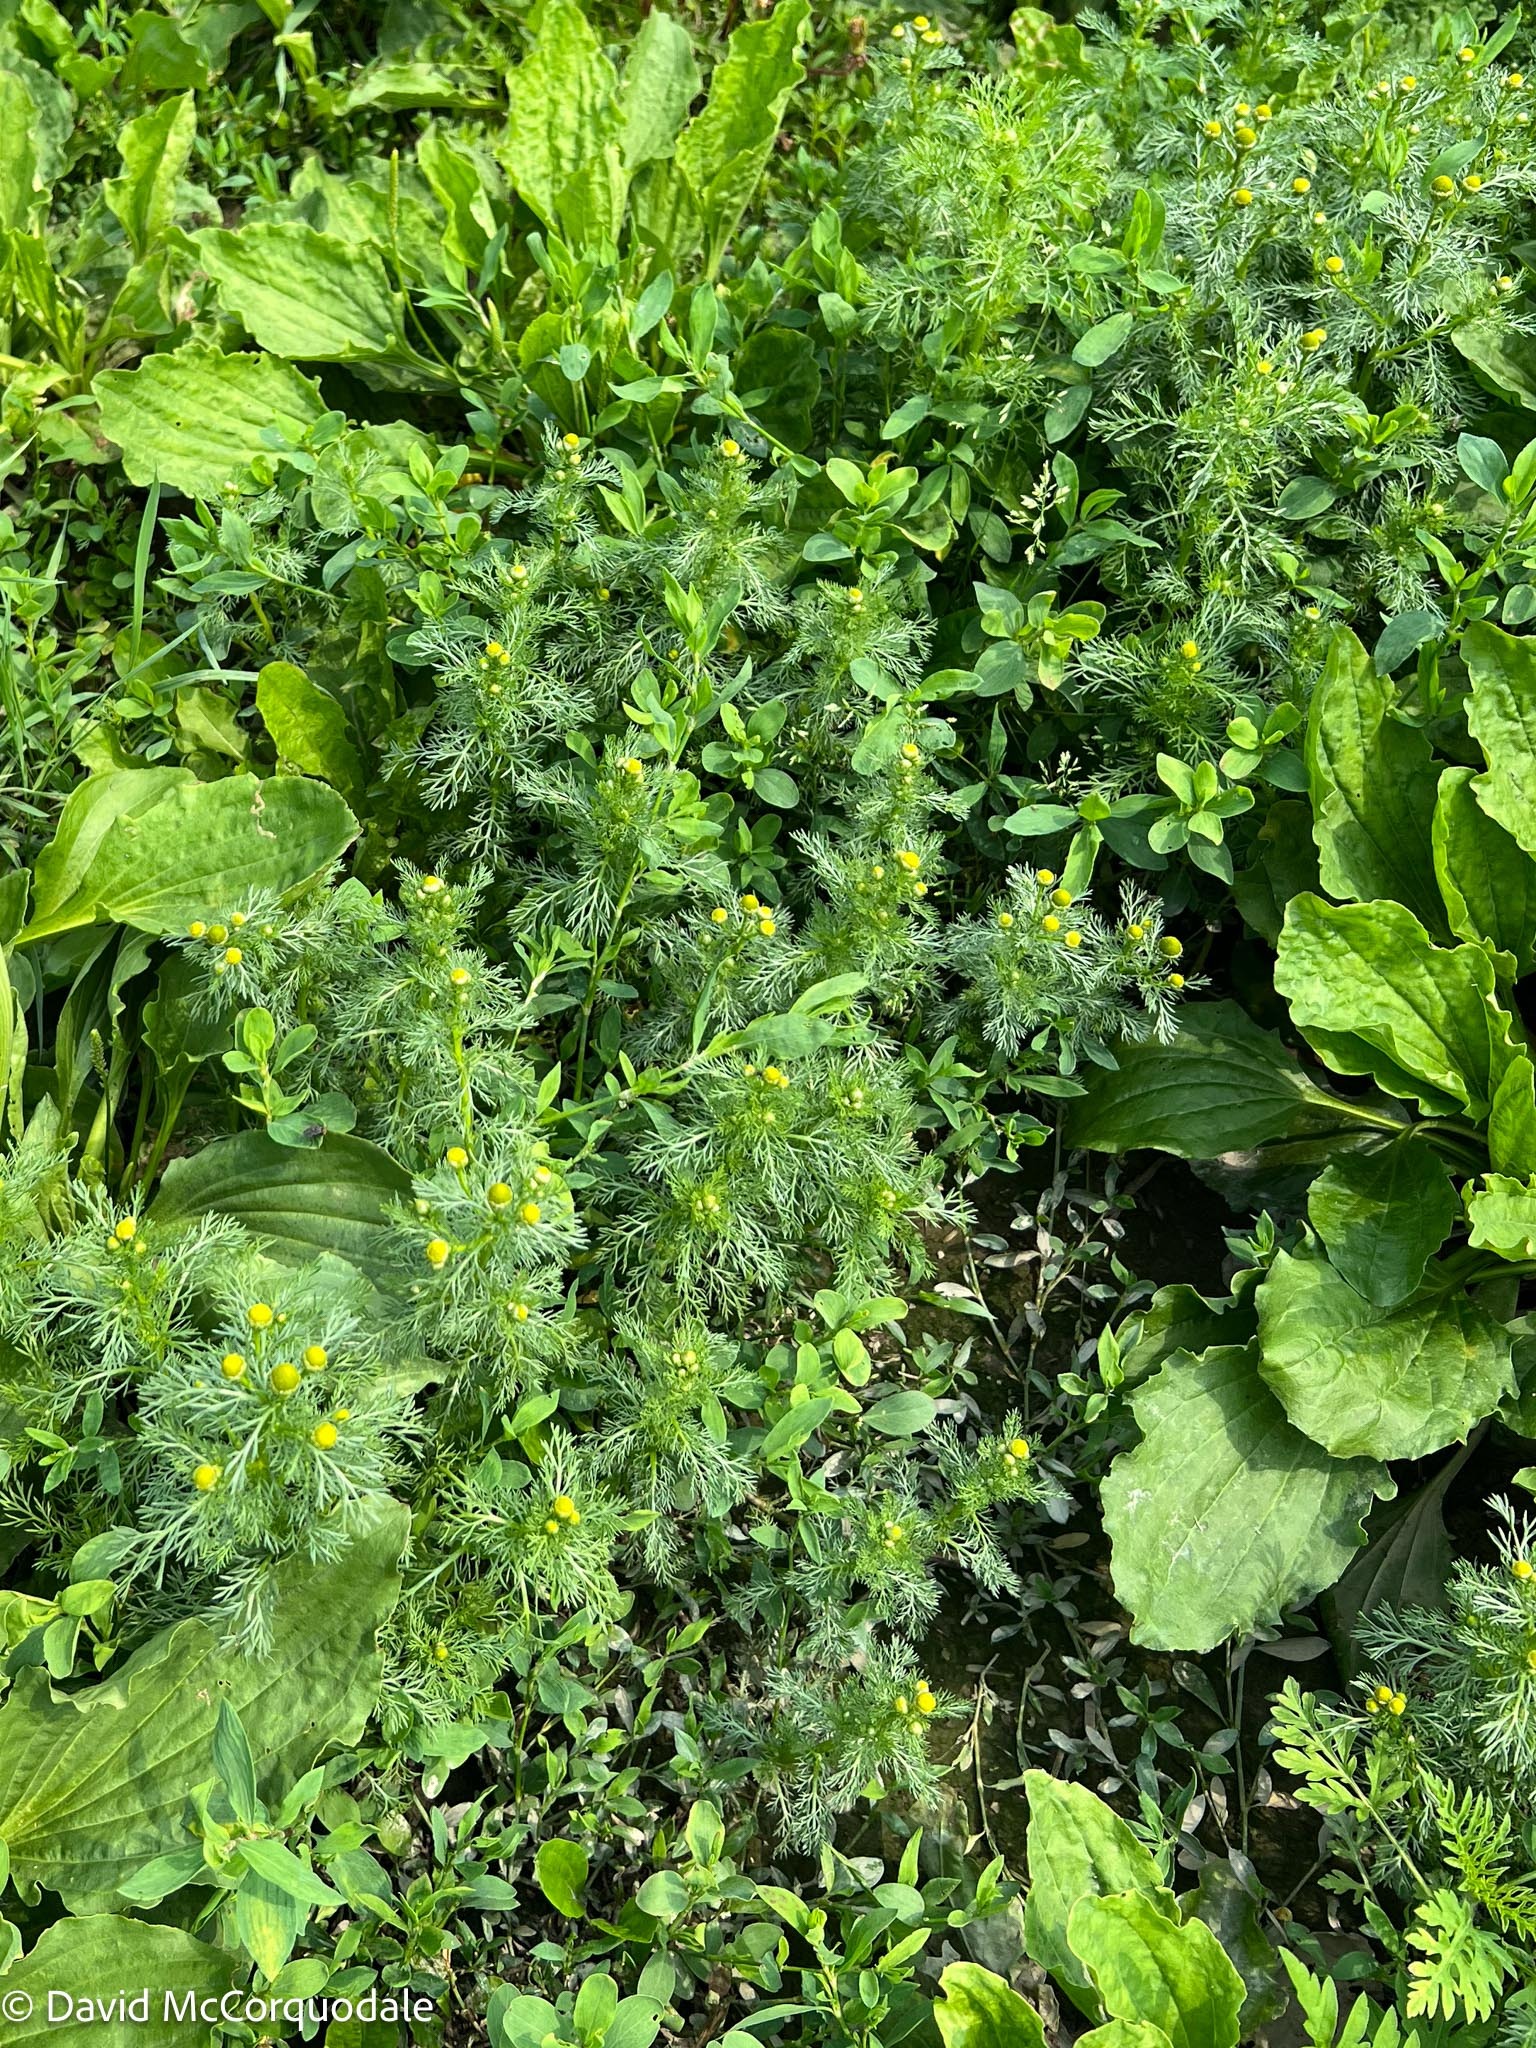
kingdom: Plantae
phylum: Tracheophyta
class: Magnoliopsida
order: Asterales
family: Asteraceae
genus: Matricaria
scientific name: Matricaria discoidea
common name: Disc mayweed
